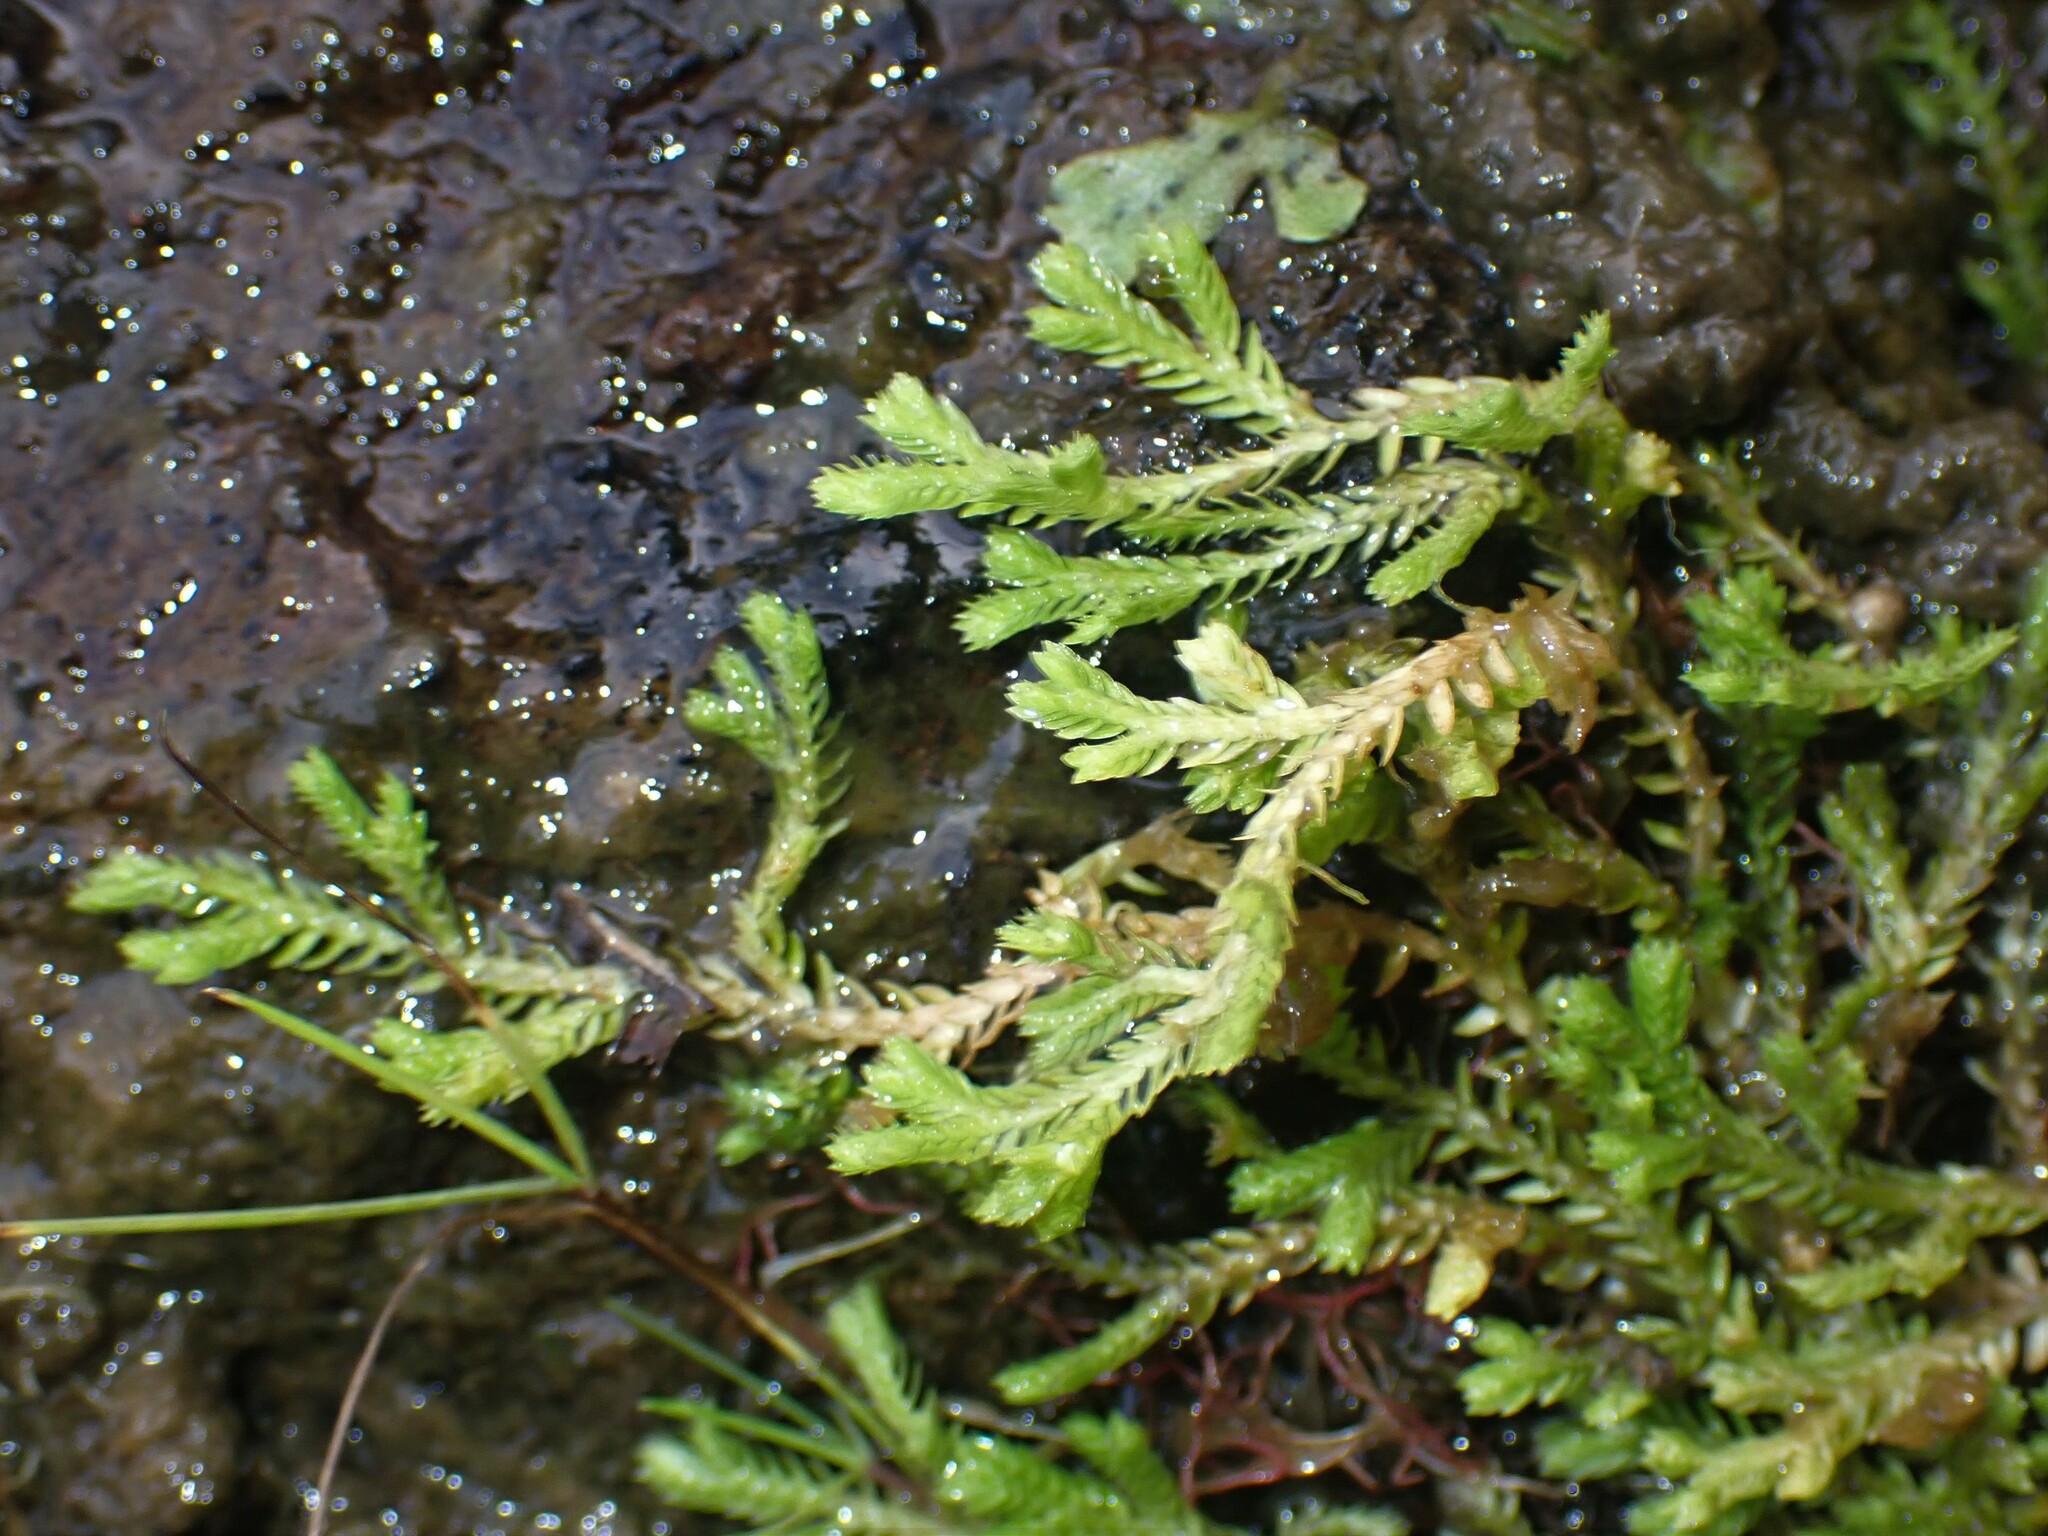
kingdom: Plantae
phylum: Tracheophyta
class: Lycopodiopsida
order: Selaginellales
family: Selaginellaceae
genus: Selaginella
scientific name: Selaginella kraussiana
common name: Krauss' spikemoss
